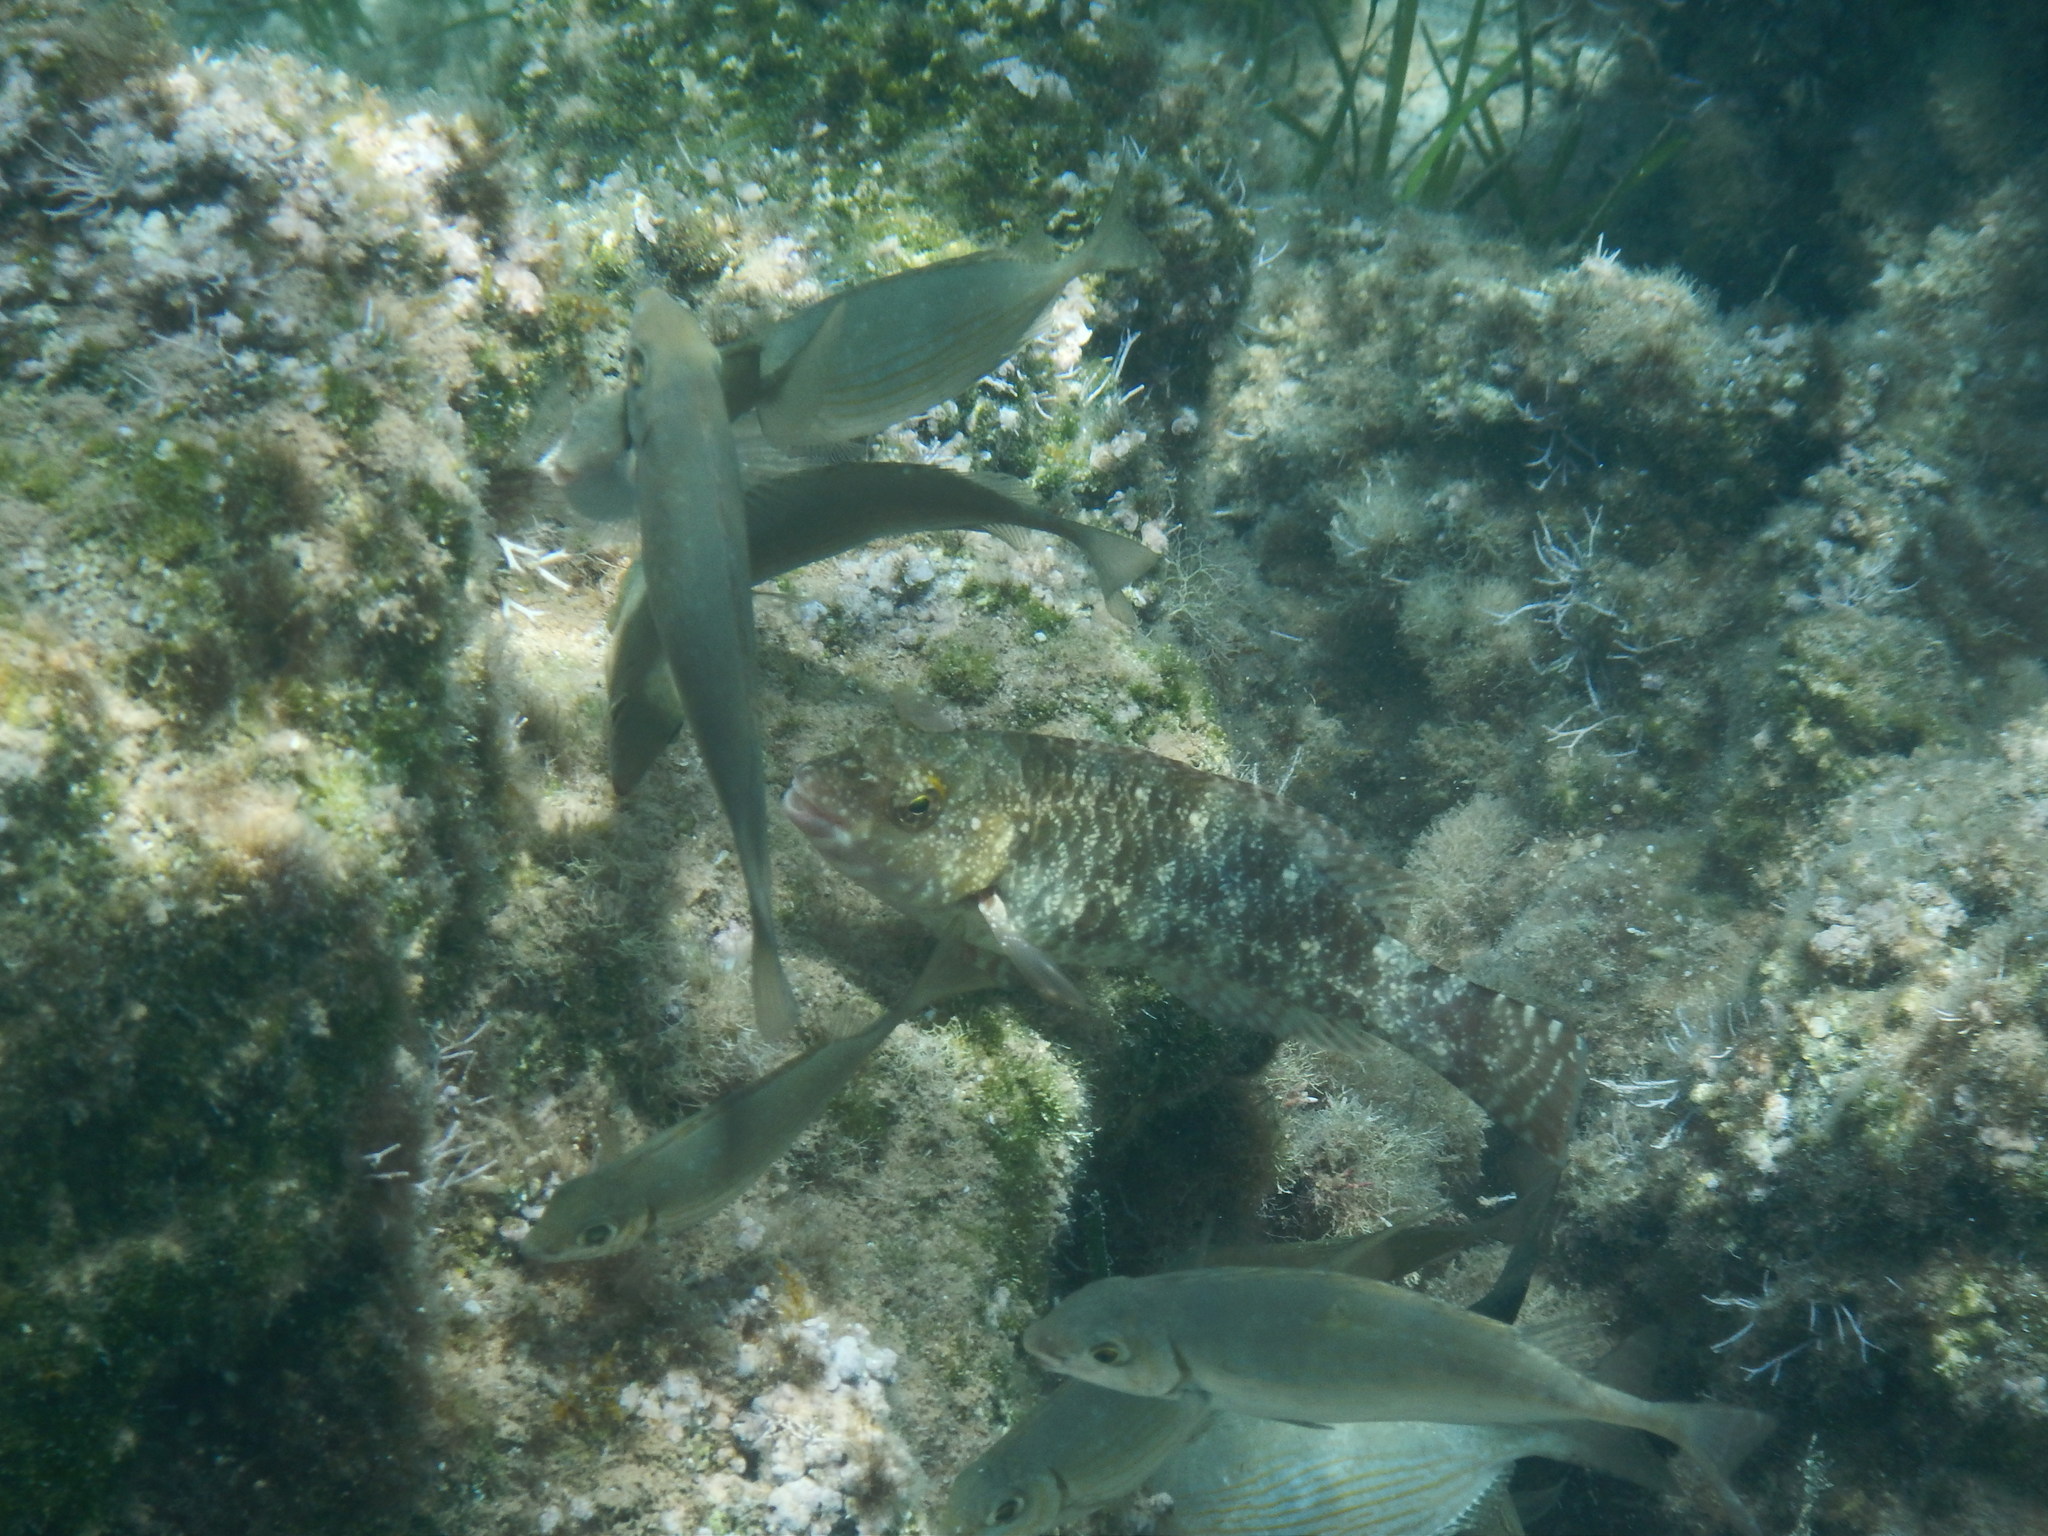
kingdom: Animalia
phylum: Chordata
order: Perciformes
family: Scaridae
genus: Sparisoma
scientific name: Sparisoma cretense
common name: Parrotfish
